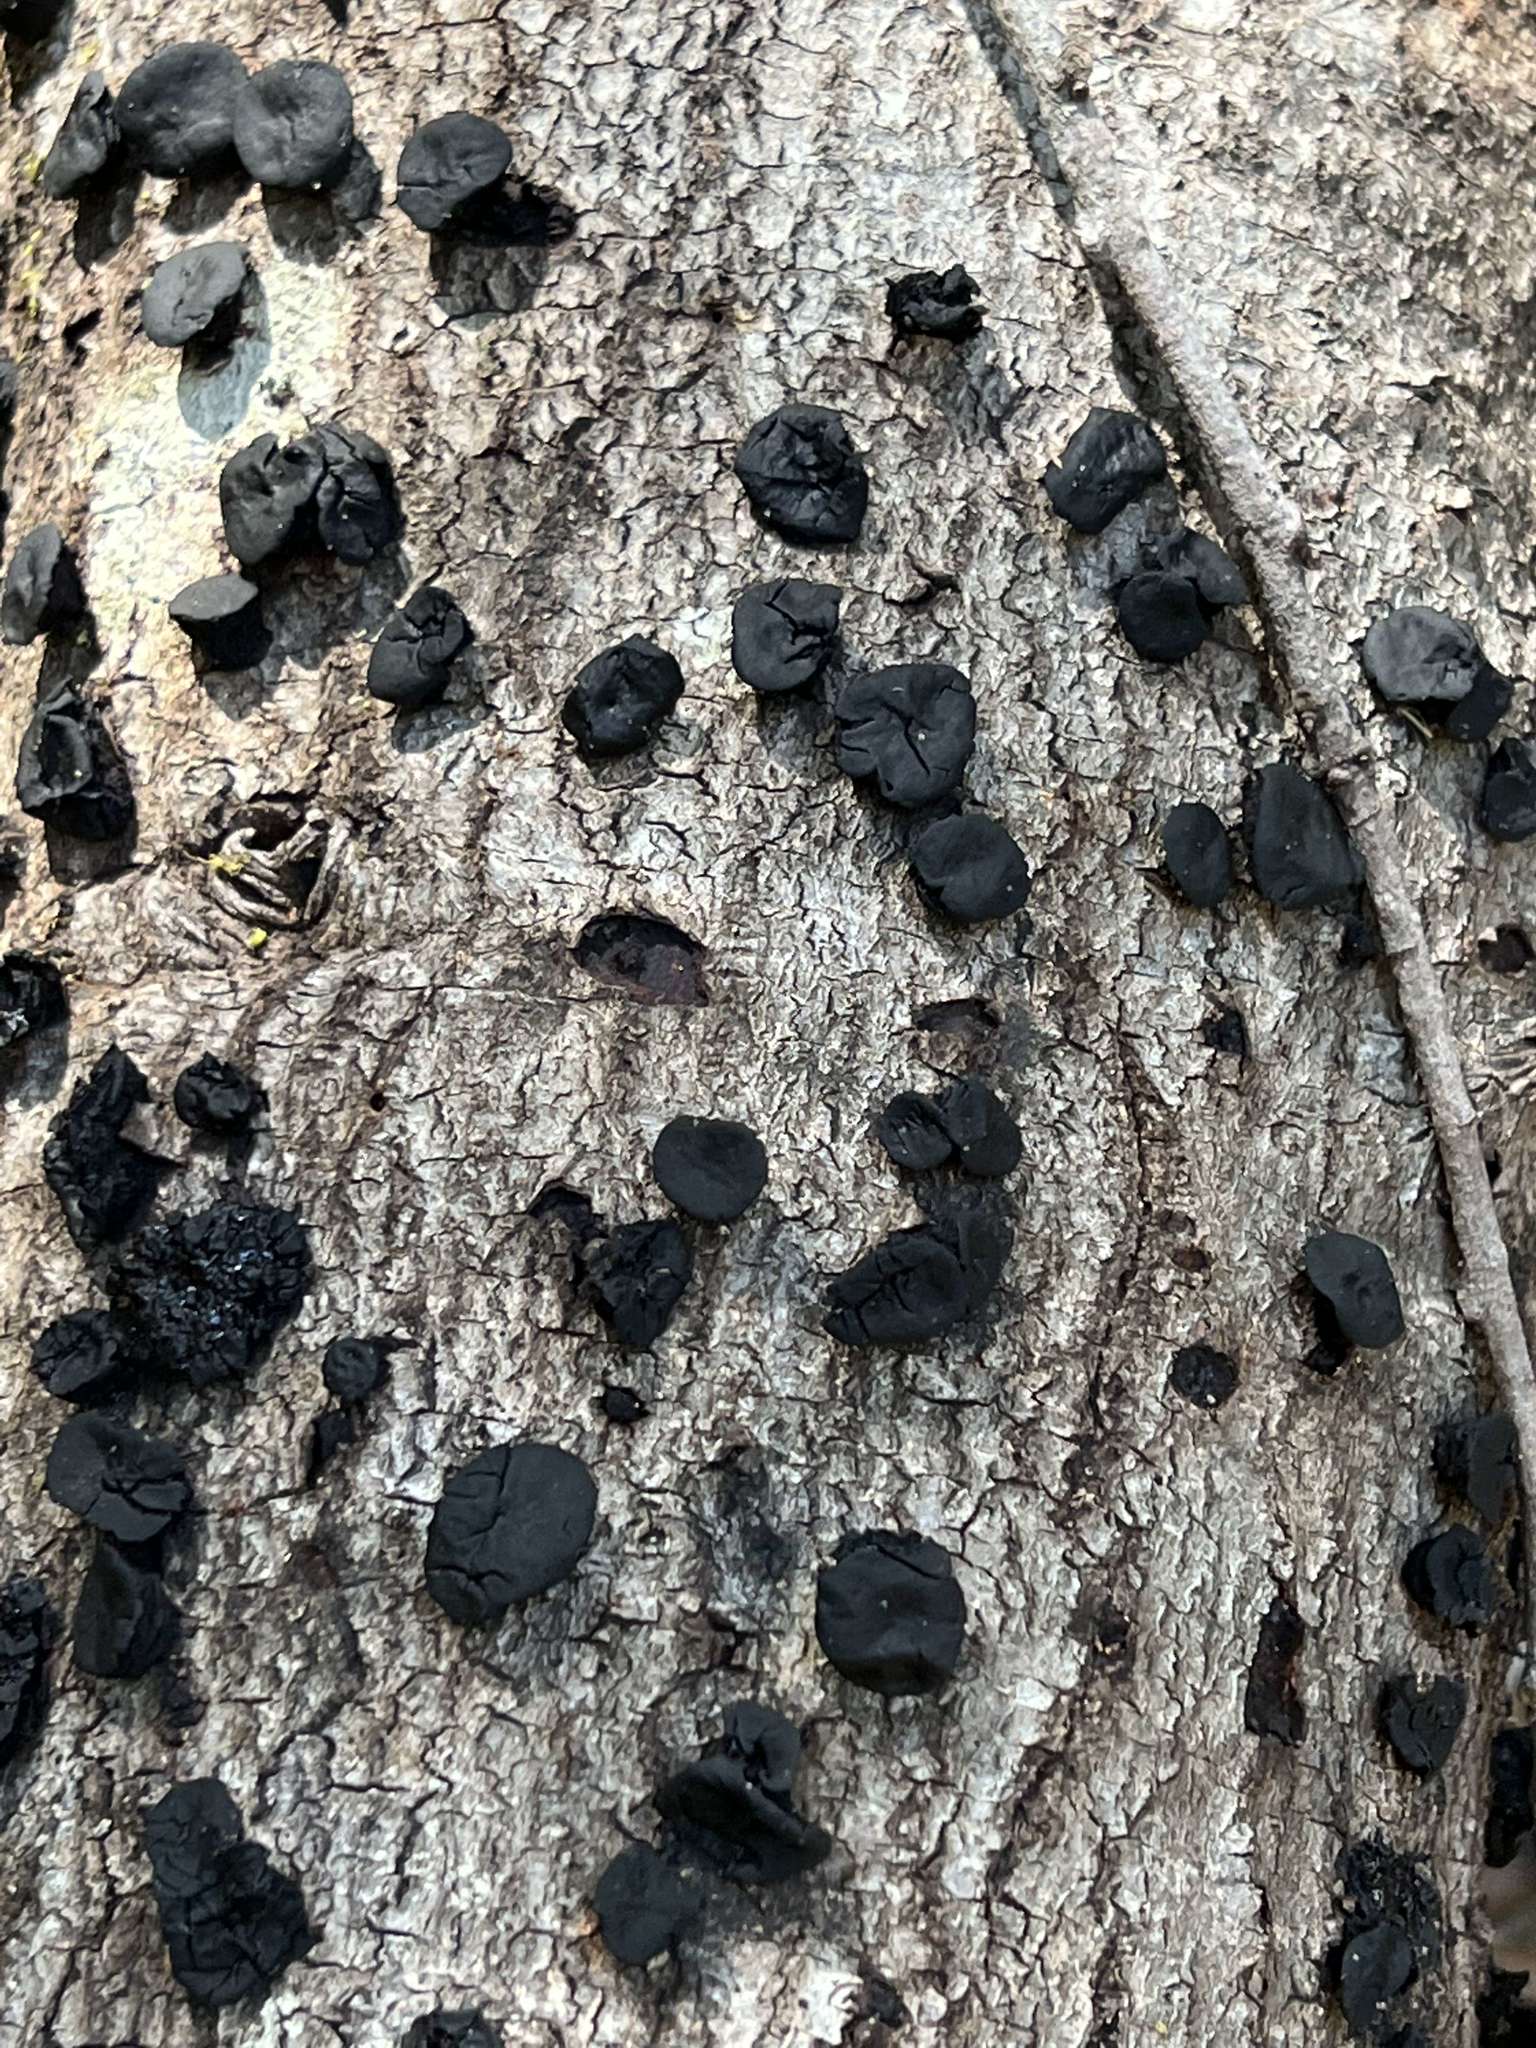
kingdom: Fungi
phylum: Ascomycota
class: Leotiomycetes
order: Phacidiales
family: Phacidiaceae
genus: Bulgaria
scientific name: Bulgaria inquinans
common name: Black bulgar
